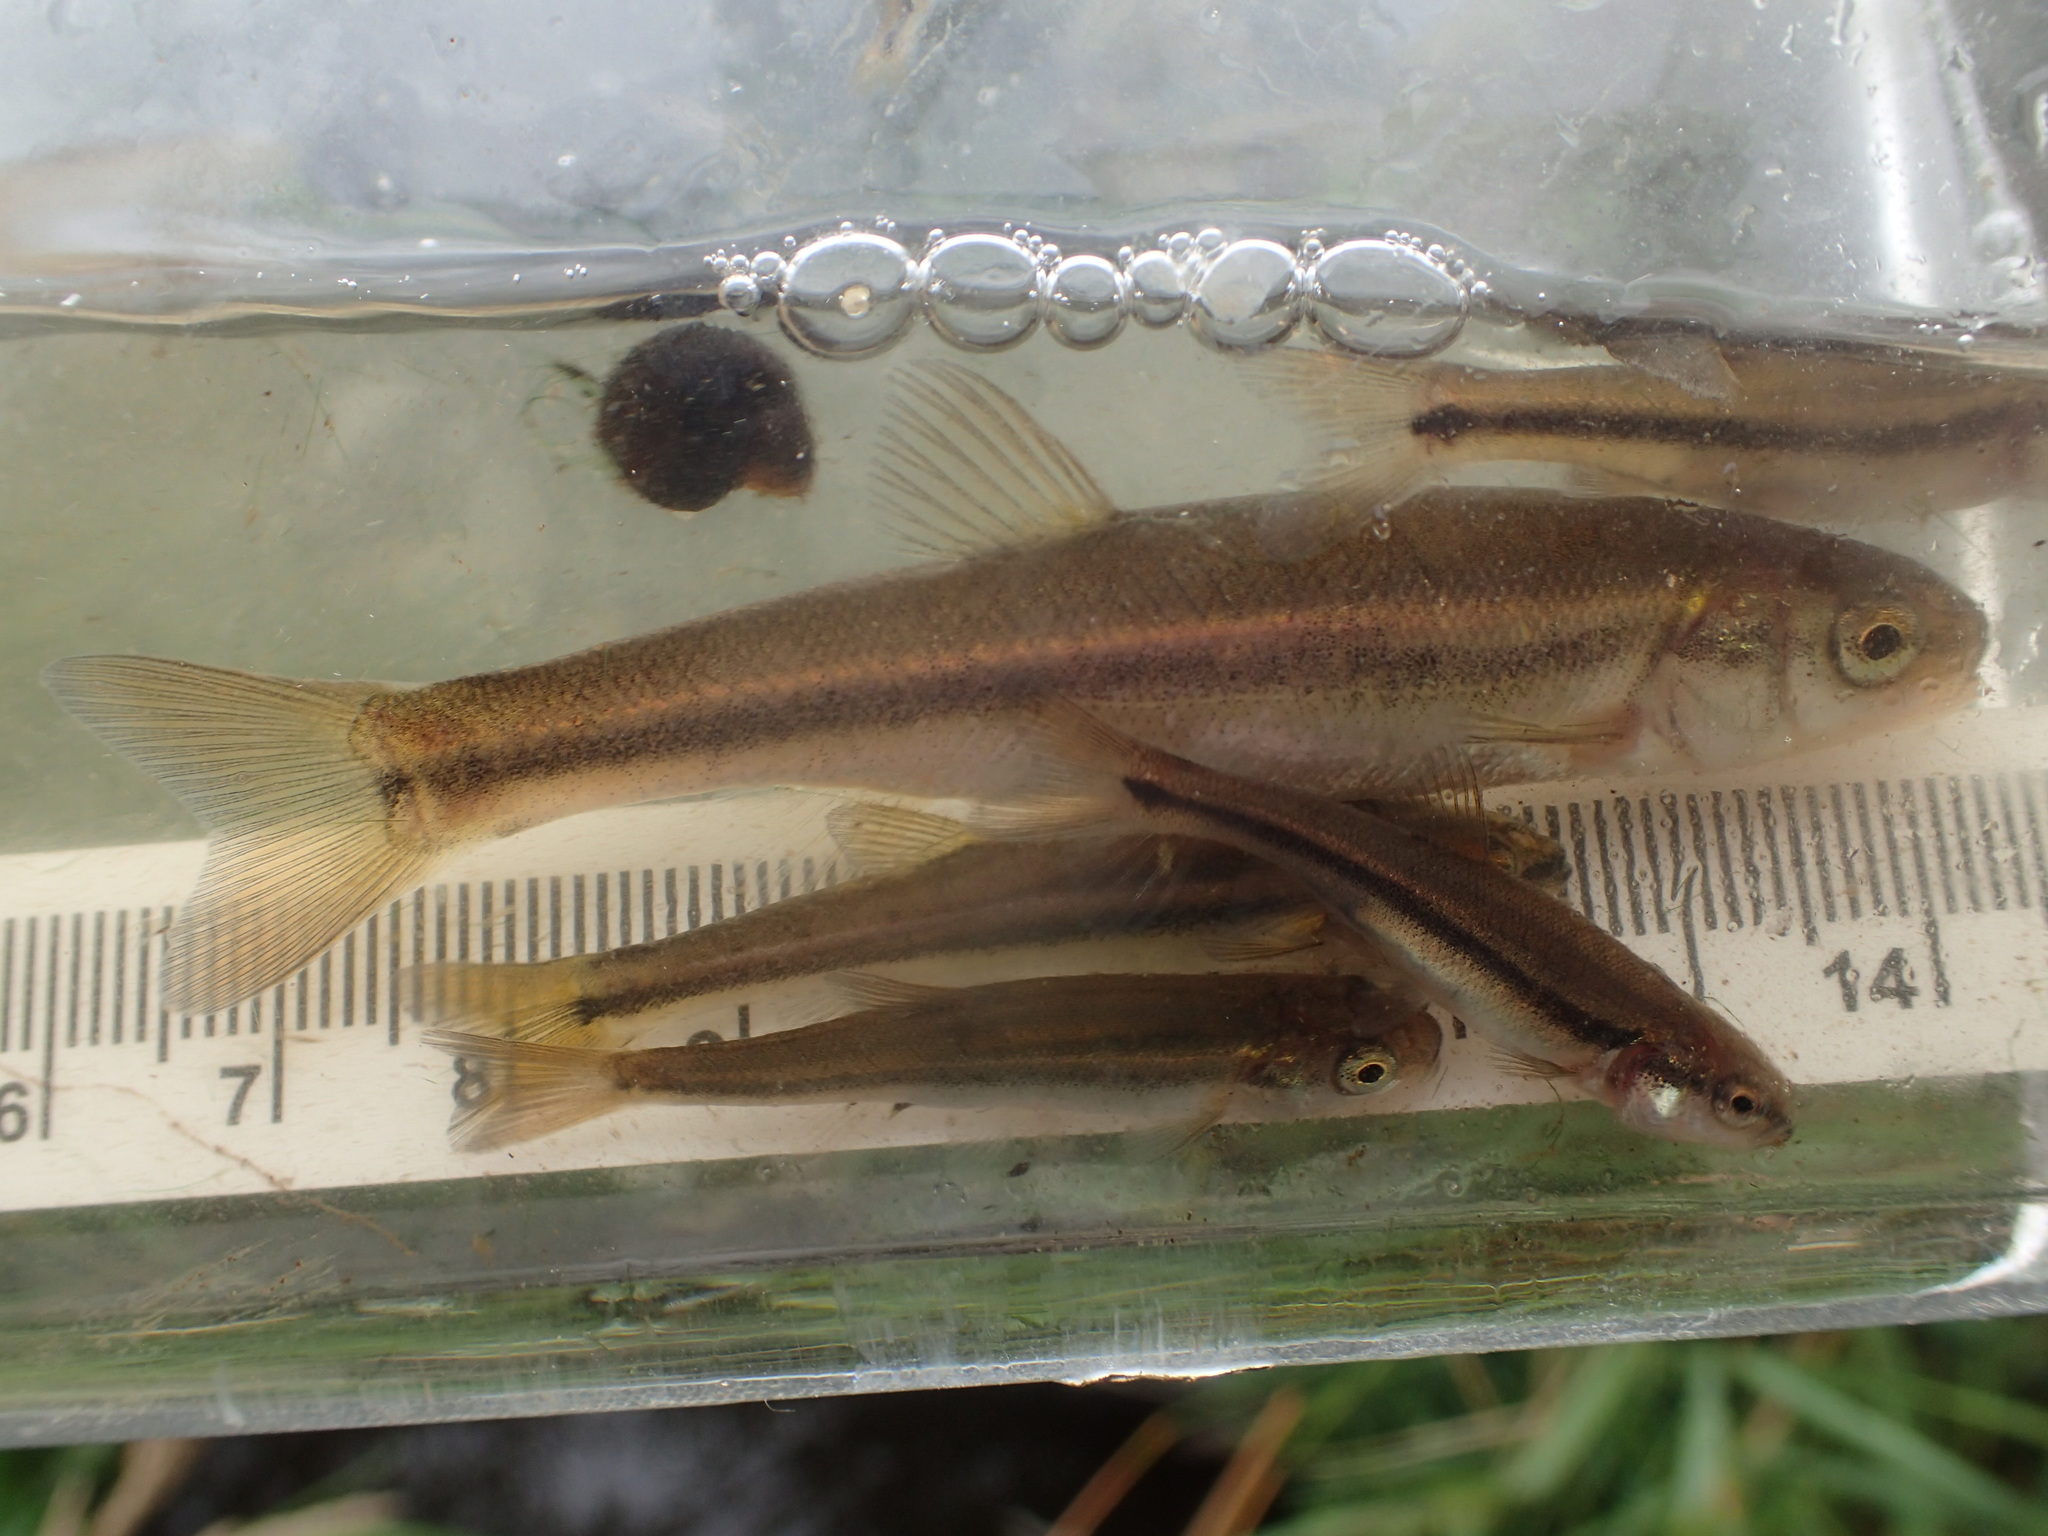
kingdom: Animalia
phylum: Chordata
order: Cypriniformes
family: Cyprinidae
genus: Margariscus
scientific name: Margariscus nachtriebi
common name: Northern pearl dace
